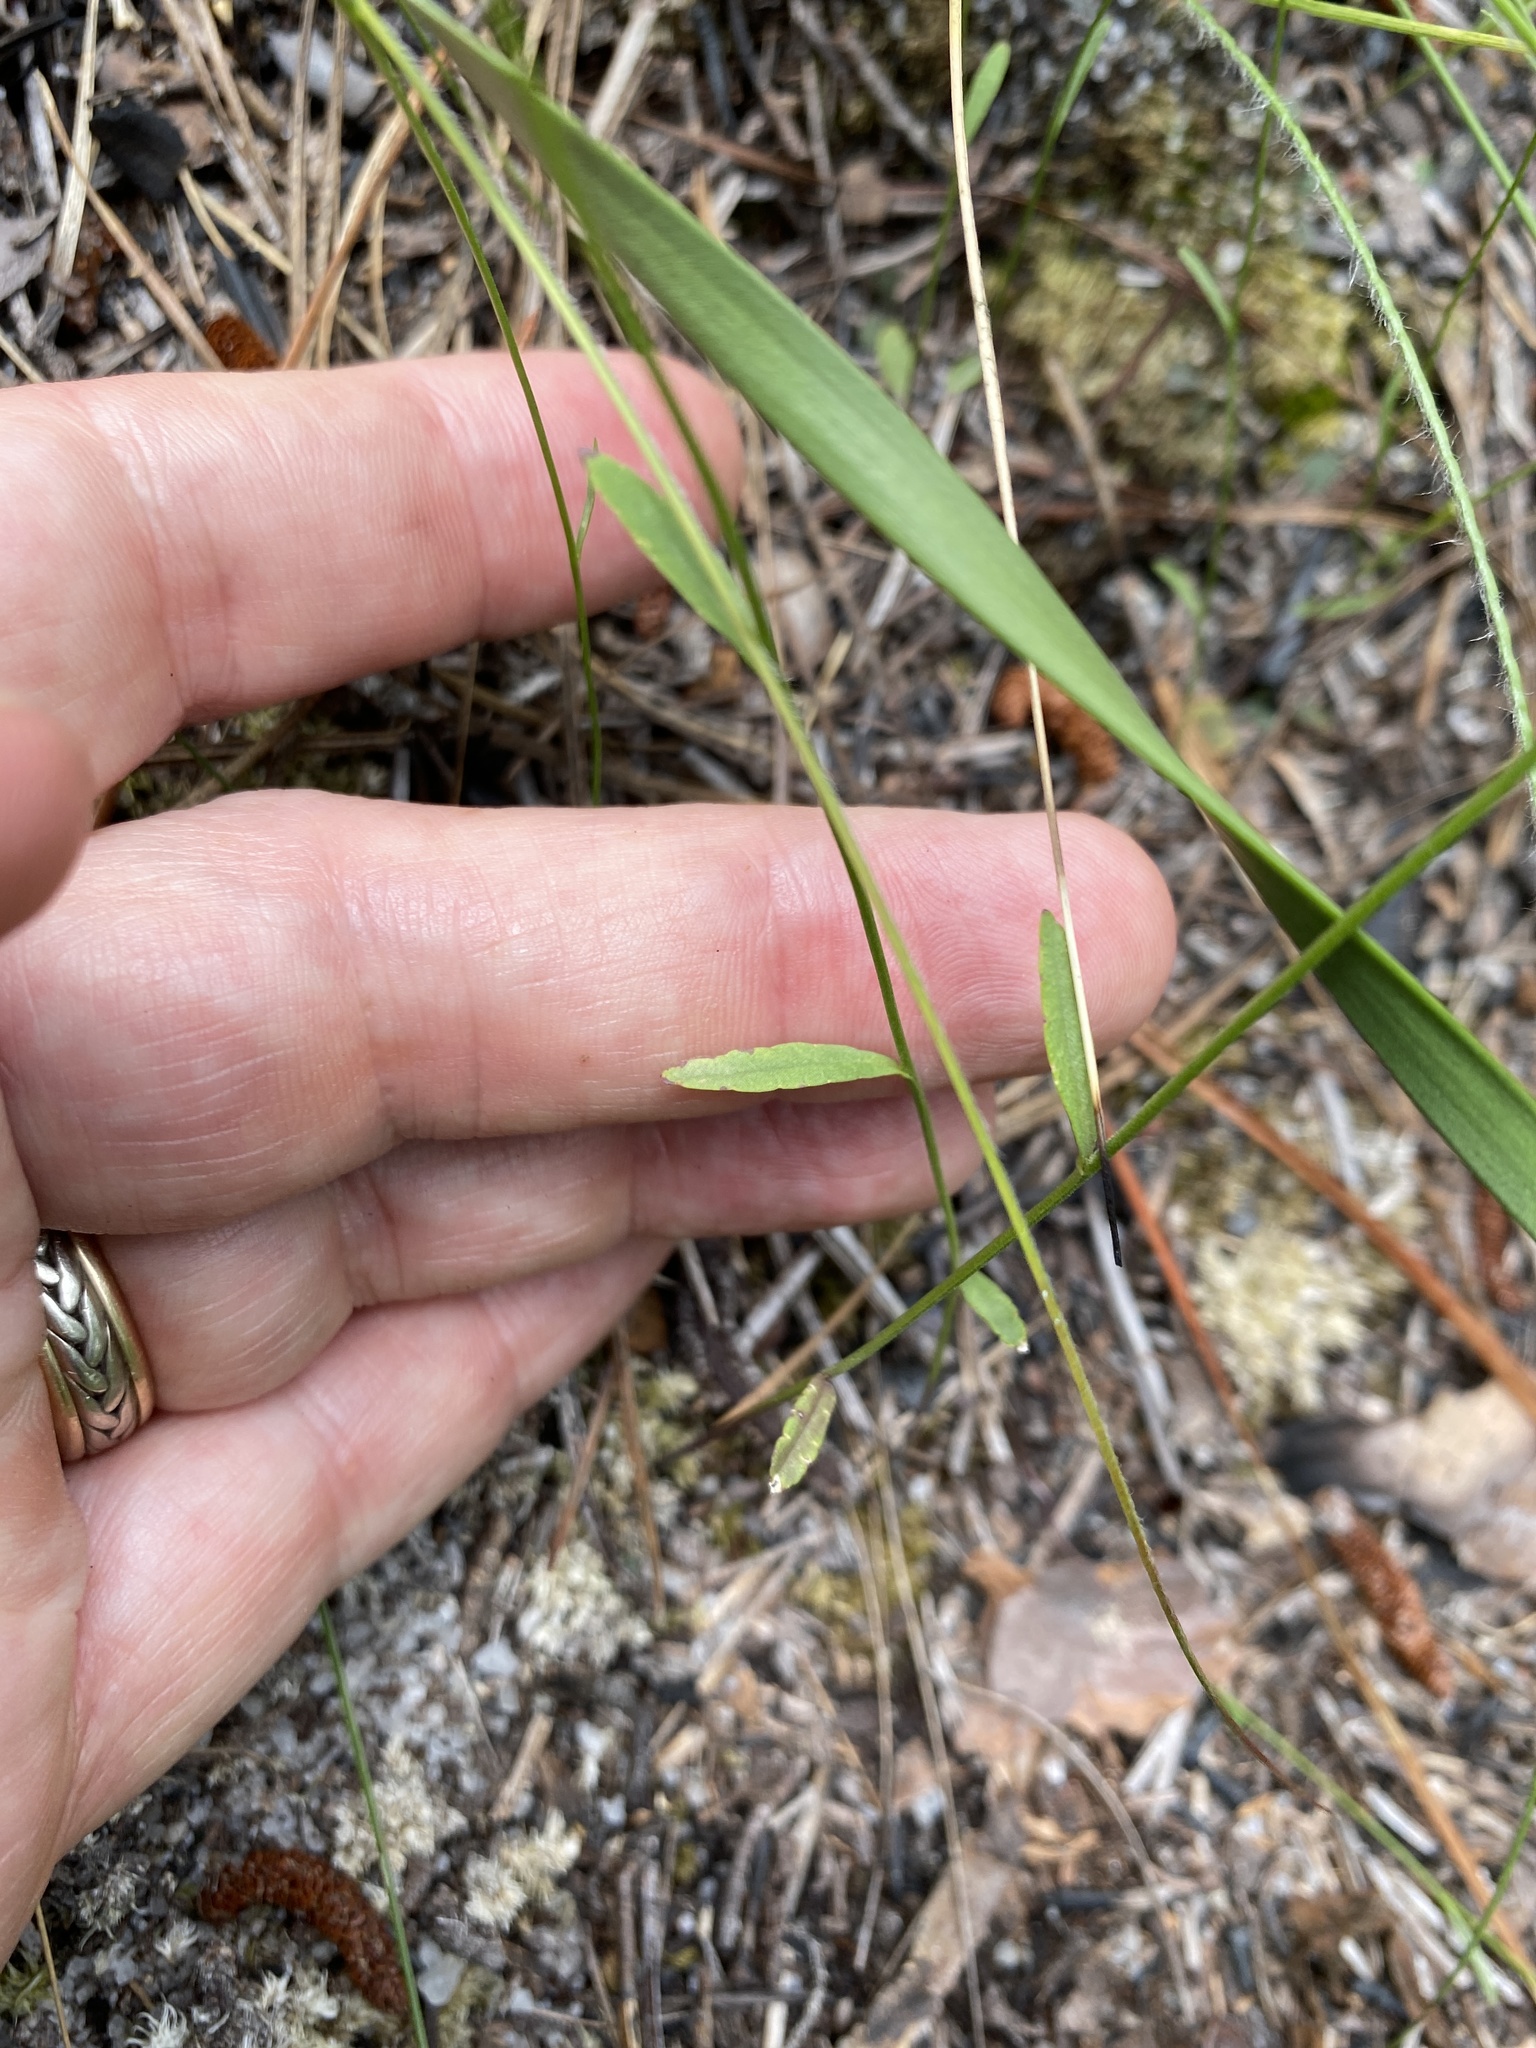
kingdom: Plantae
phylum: Tracheophyta
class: Magnoliopsida
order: Asterales
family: Campanulaceae
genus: Lobelia
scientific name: Lobelia nuttallii
